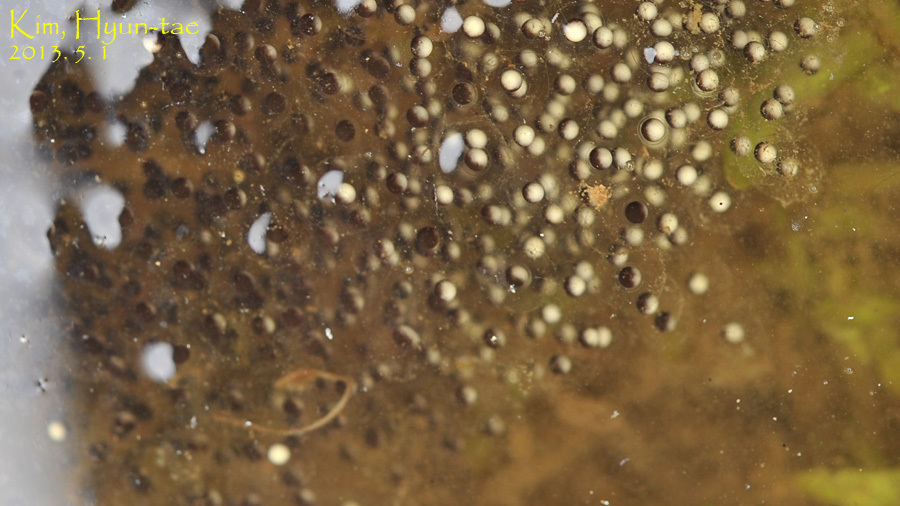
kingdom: Animalia
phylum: Chordata
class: Amphibia
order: Anura
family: Ranidae
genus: Pelophylax
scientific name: Pelophylax nigromaculatus
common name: Black-spotted pond frog
